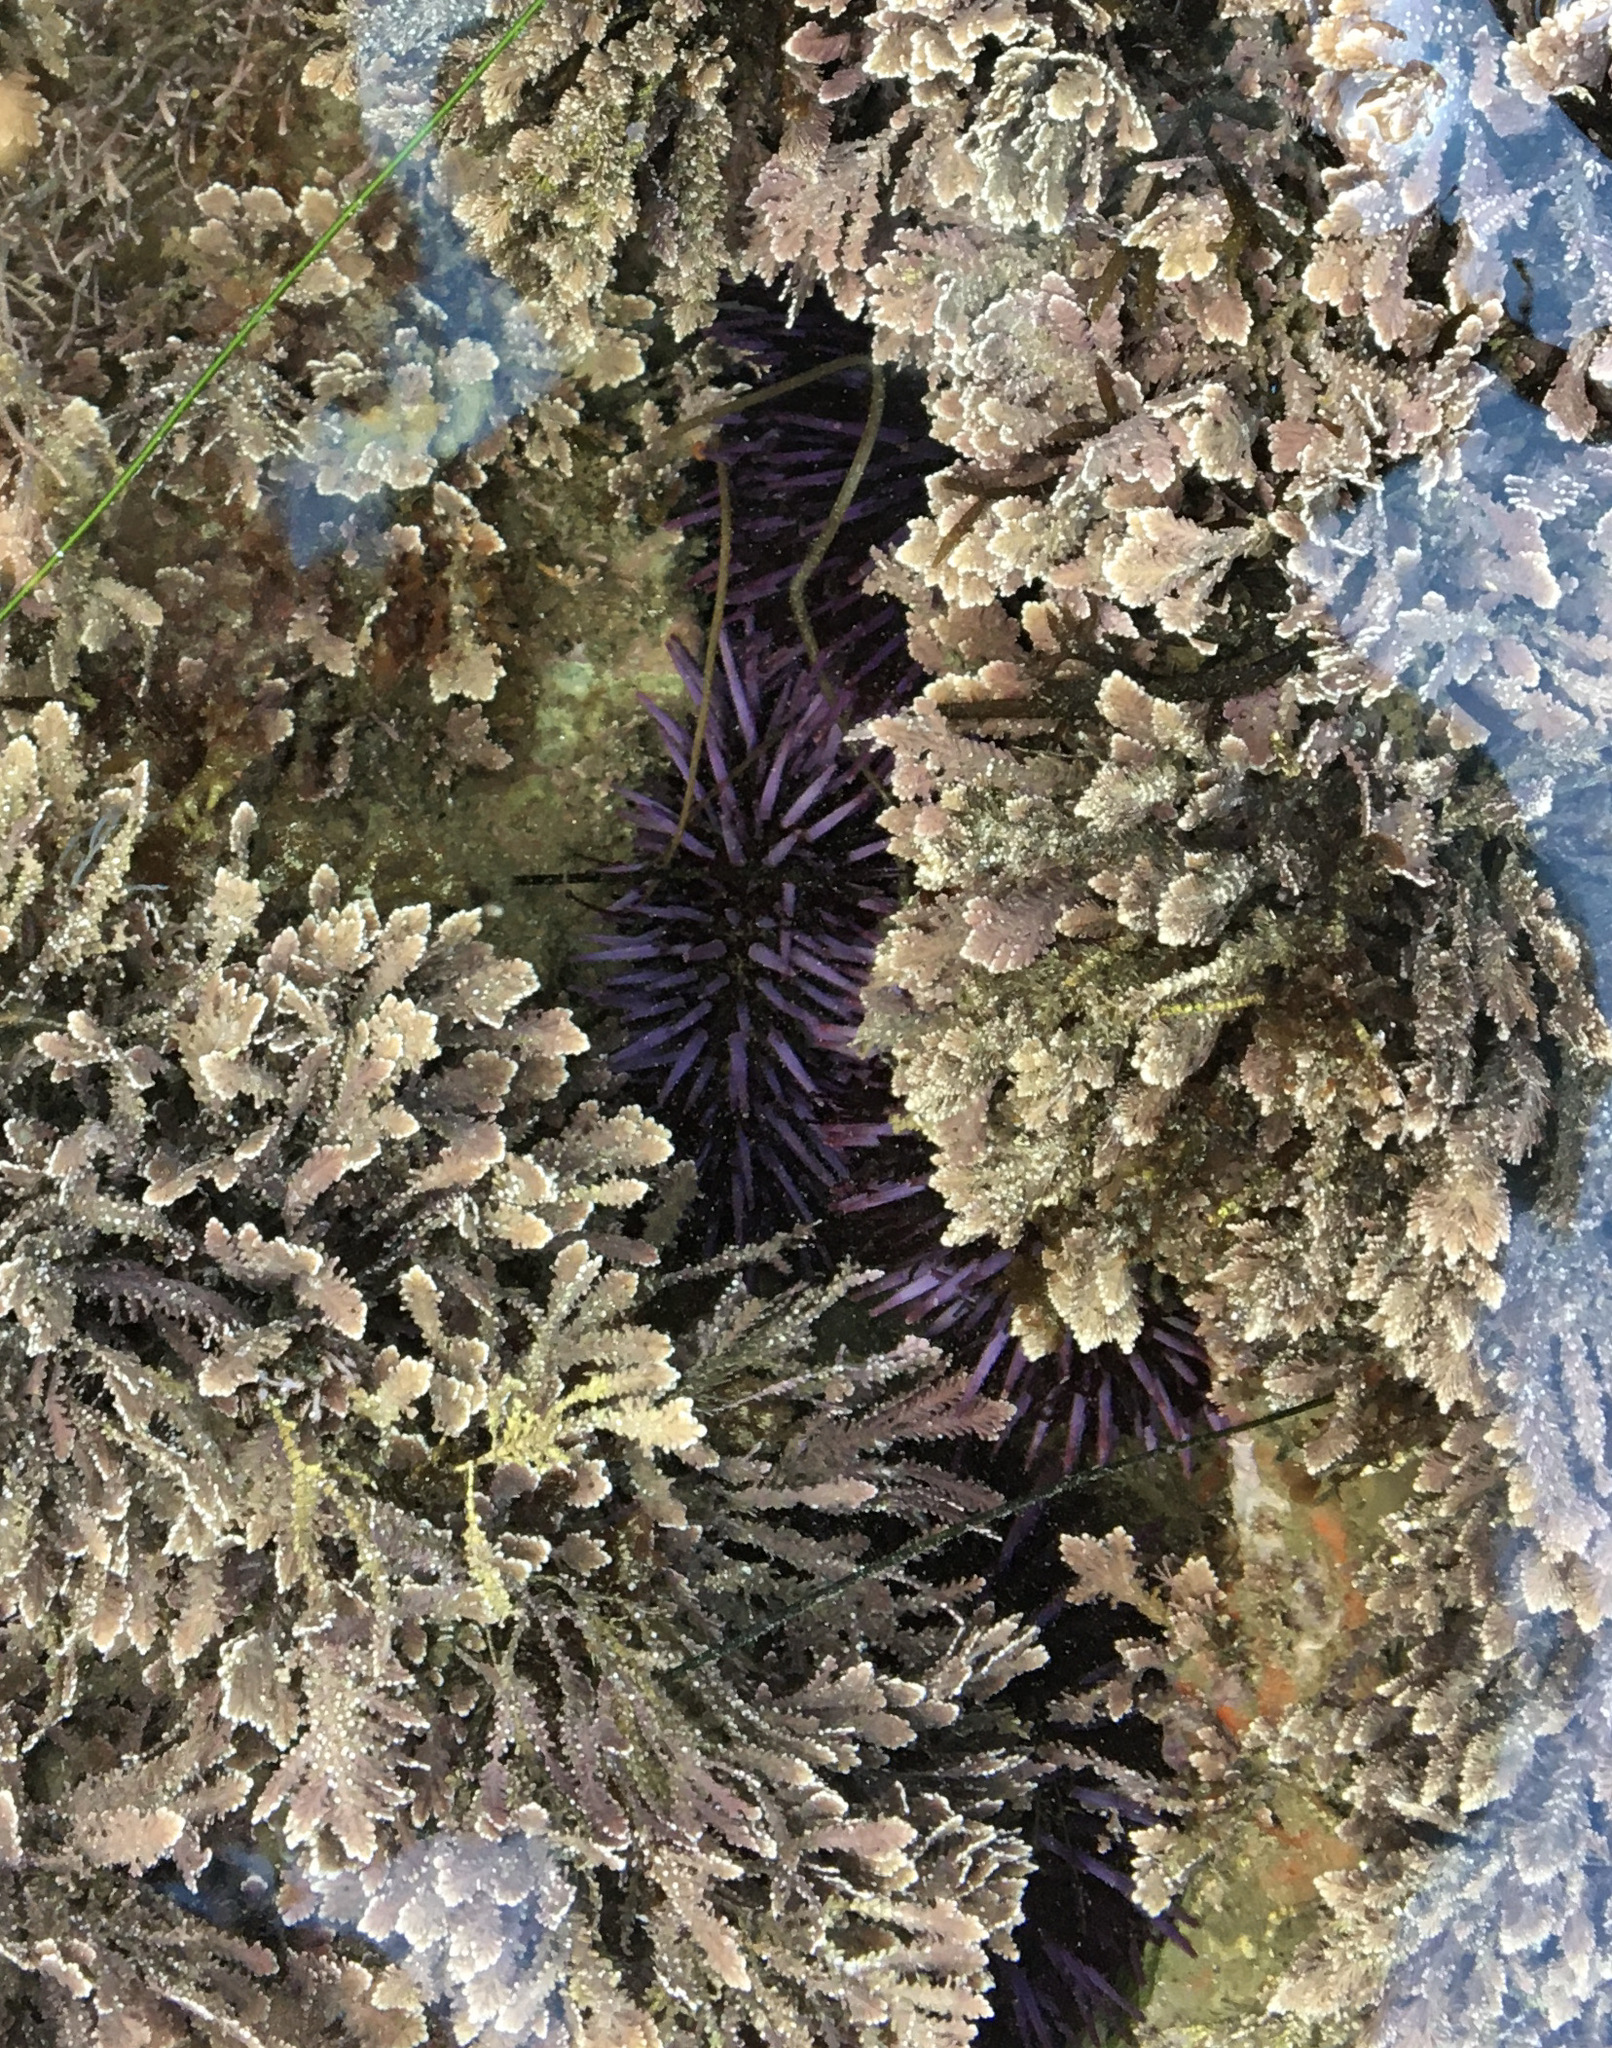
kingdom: Animalia
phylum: Echinodermata
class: Echinoidea
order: Camarodonta
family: Strongylocentrotidae
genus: Strongylocentrotus
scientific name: Strongylocentrotus purpuratus
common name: Purple sea urchin
